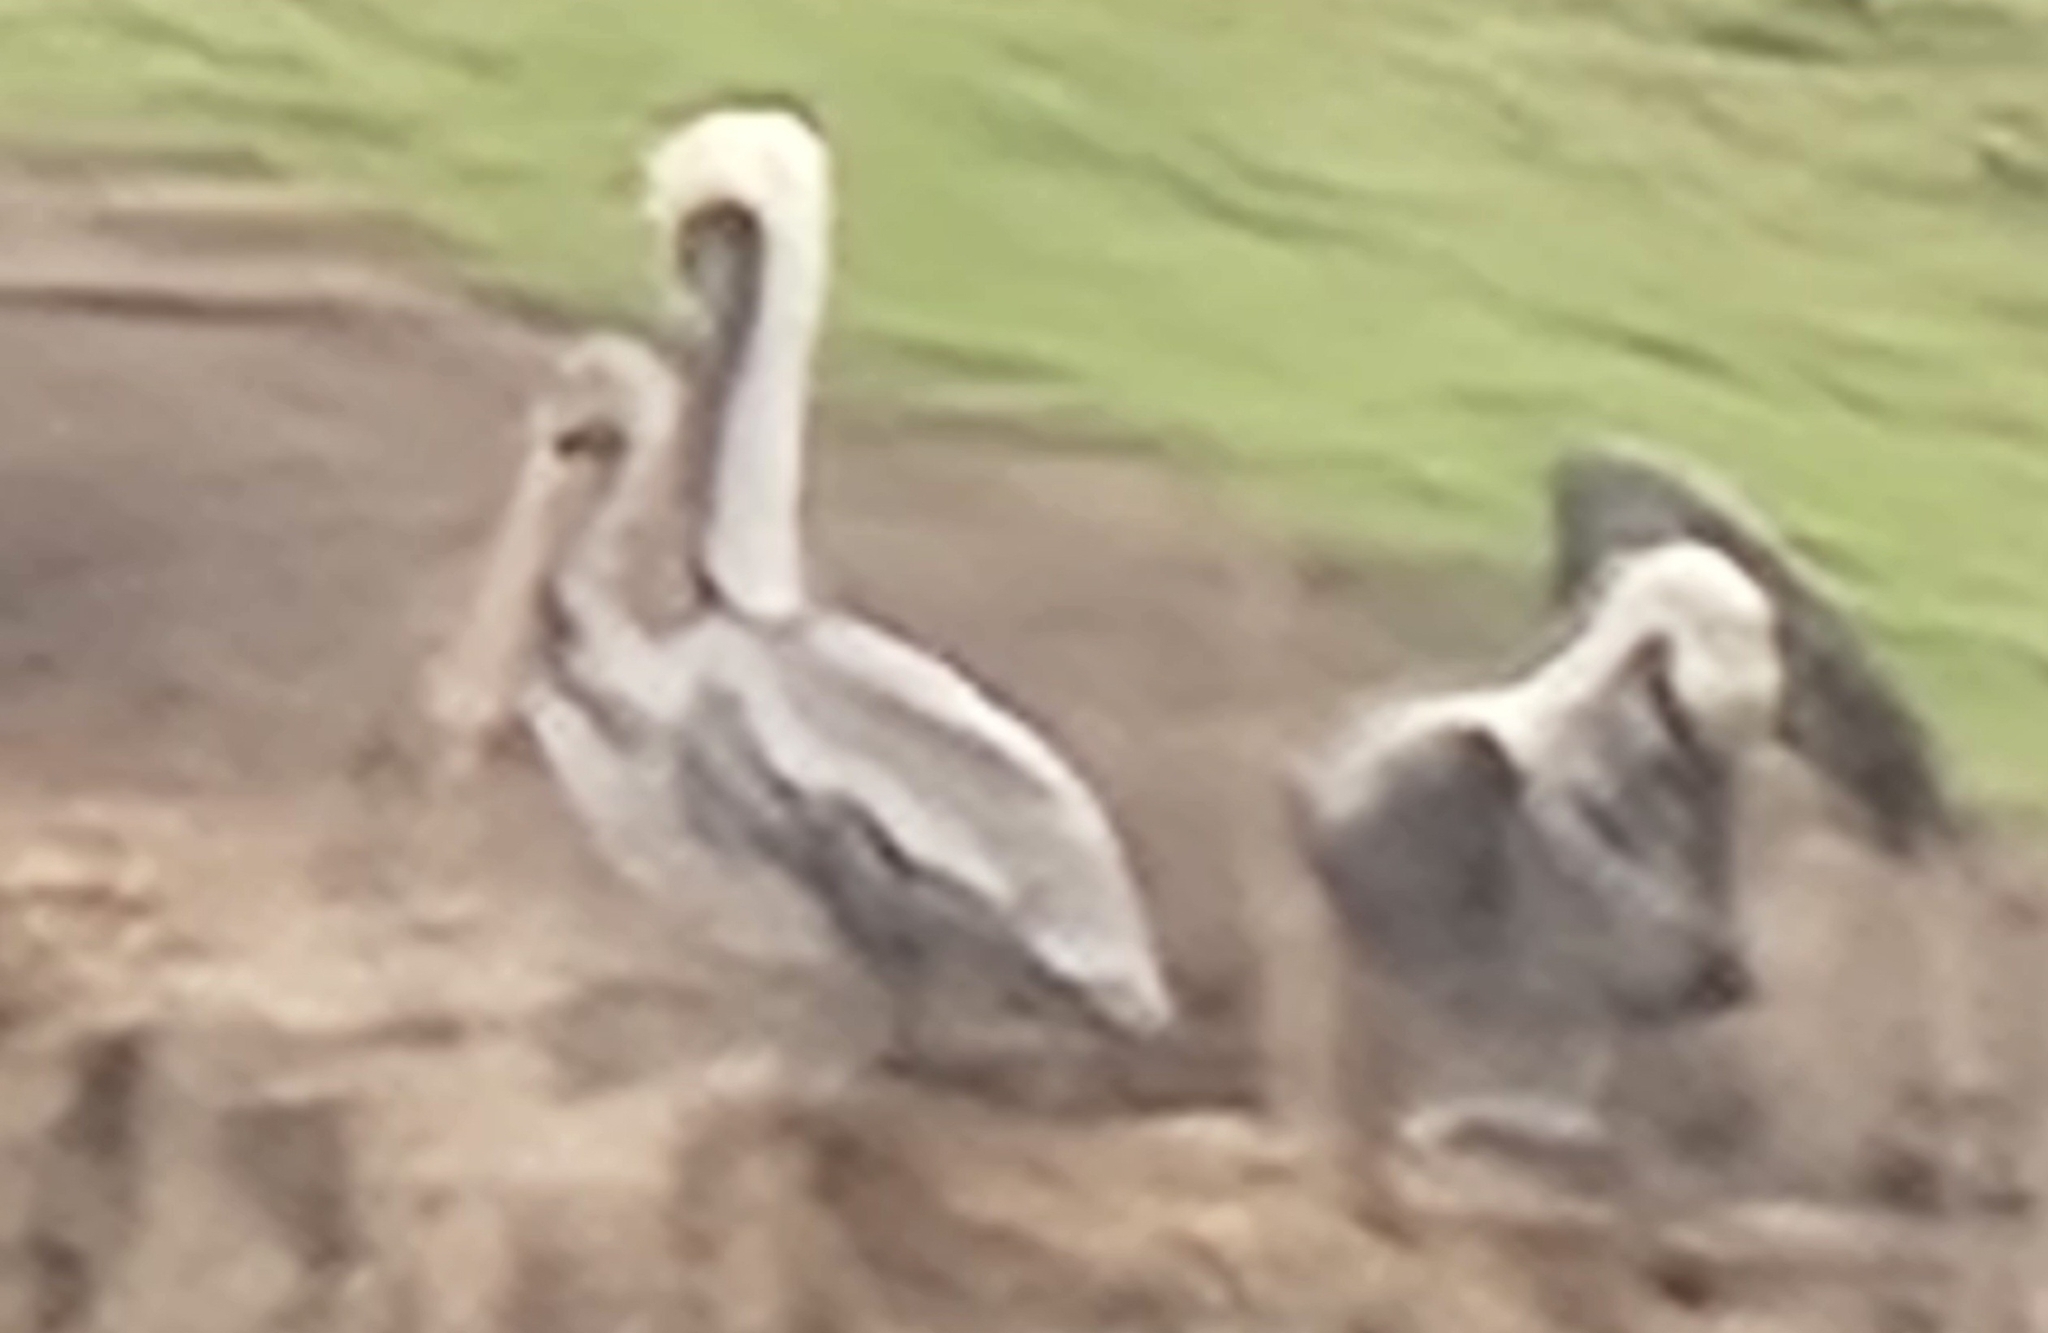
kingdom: Animalia
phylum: Chordata
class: Aves
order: Pelecaniformes
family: Pelecanidae
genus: Pelecanus
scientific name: Pelecanus occidentalis
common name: Brown pelican
